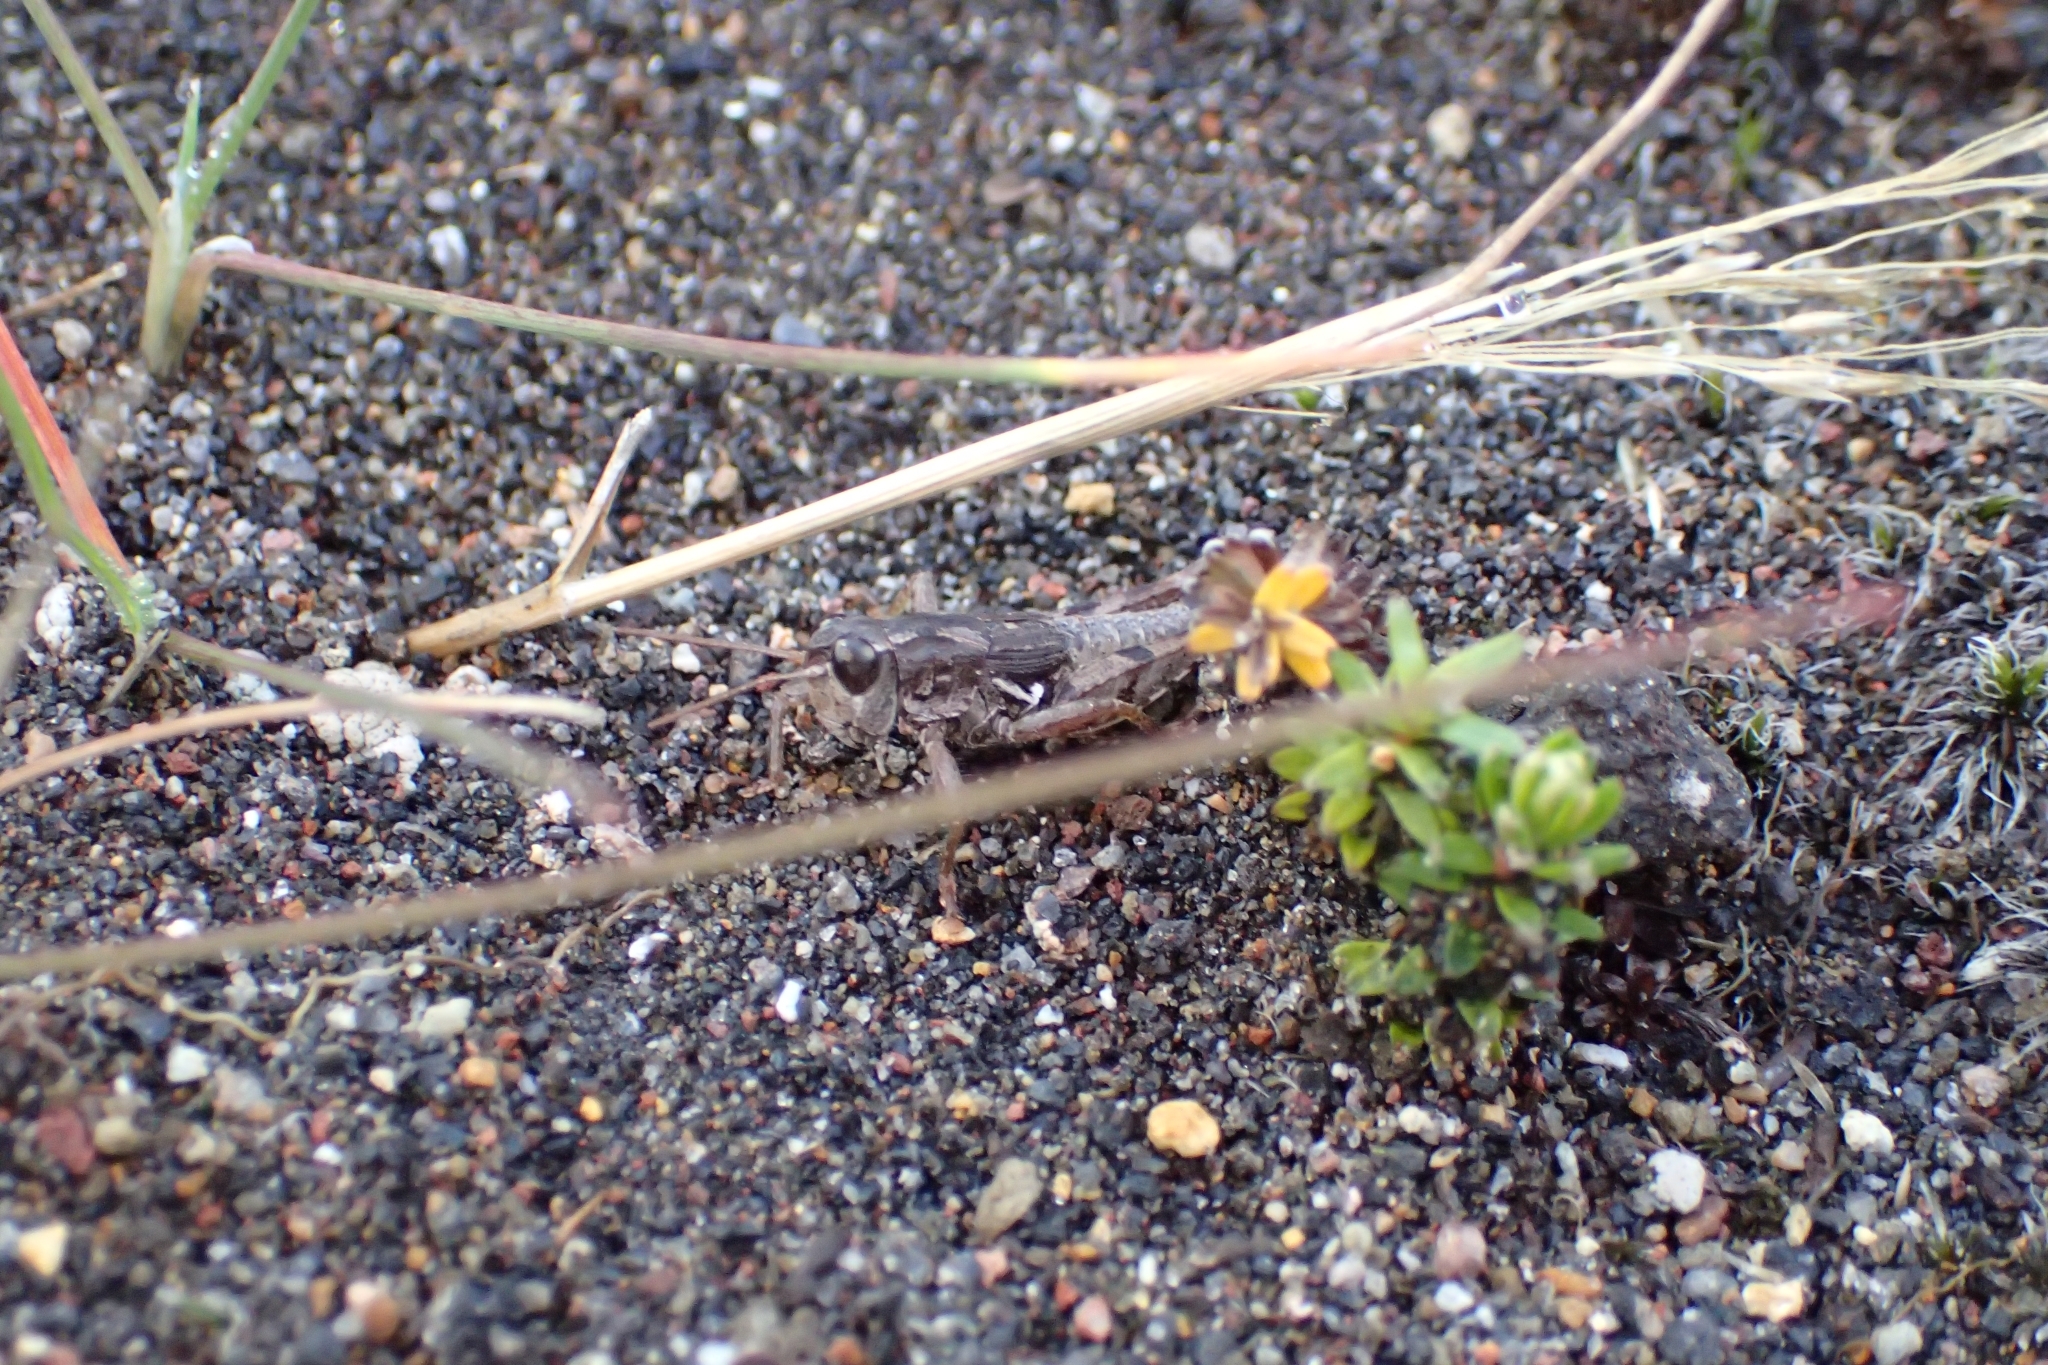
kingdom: Animalia
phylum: Arthropoda
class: Insecta
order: Orthoptera
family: Acrididae
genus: Phaulacridium
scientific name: Phaulacridium marginale
